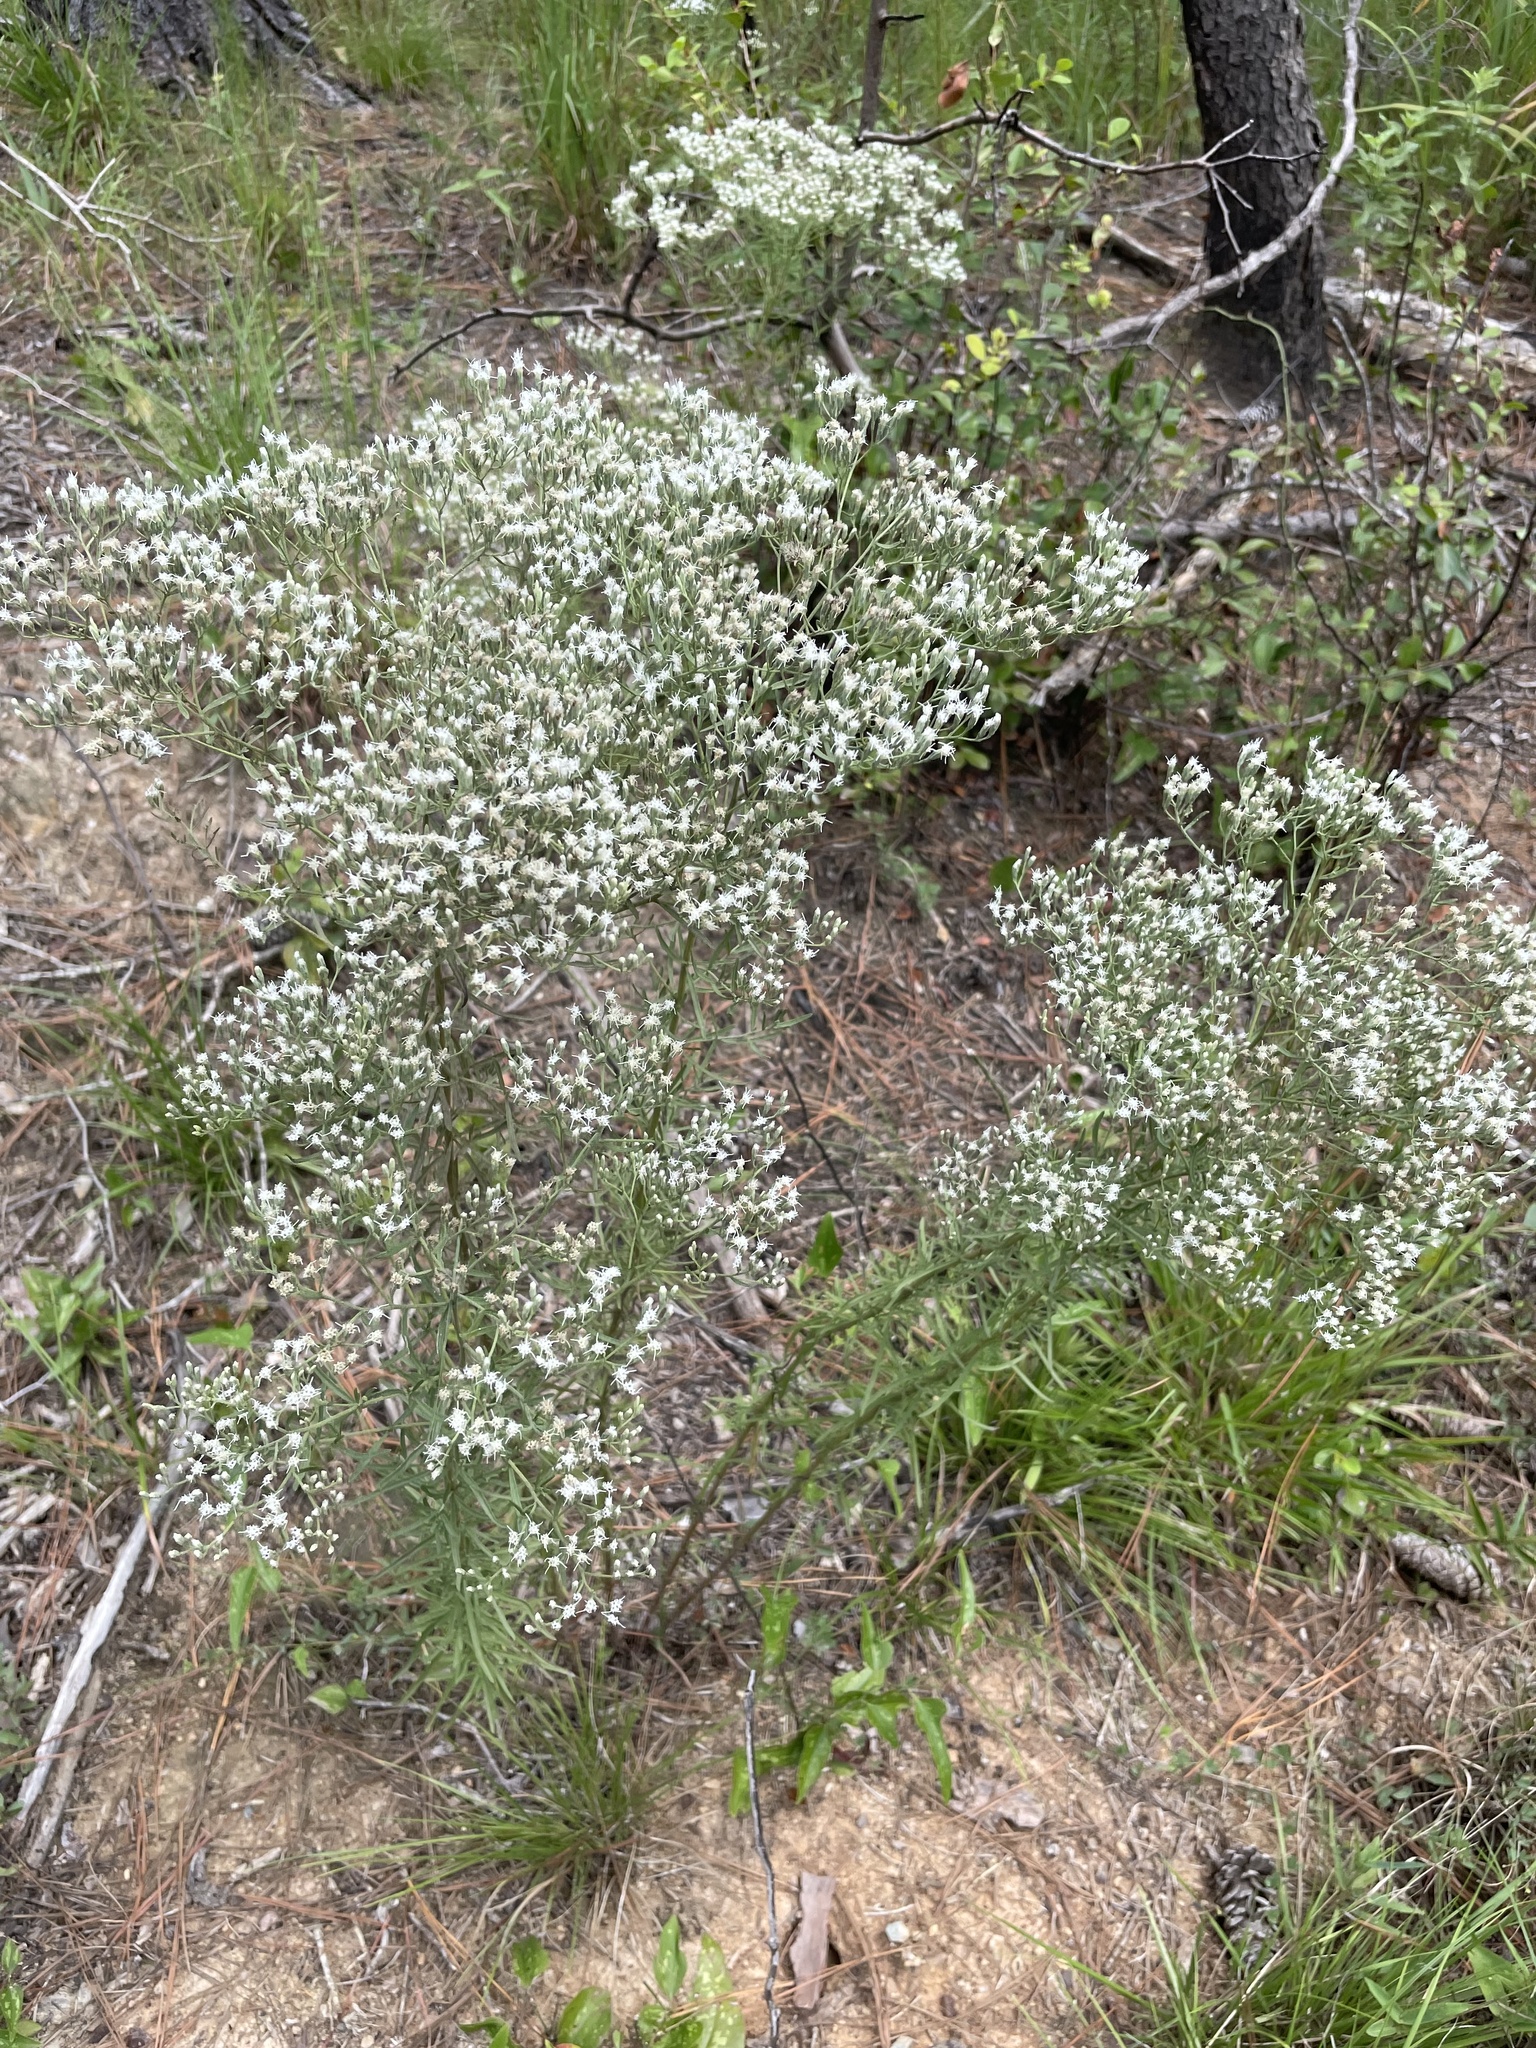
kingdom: Plantae
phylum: Tracheophyta
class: Magnoliopsida
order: Asterales
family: Asteraceae
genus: Eupatorium
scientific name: Eupatorium hyssopifolium
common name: Hyssop-leaf thoroughwort
